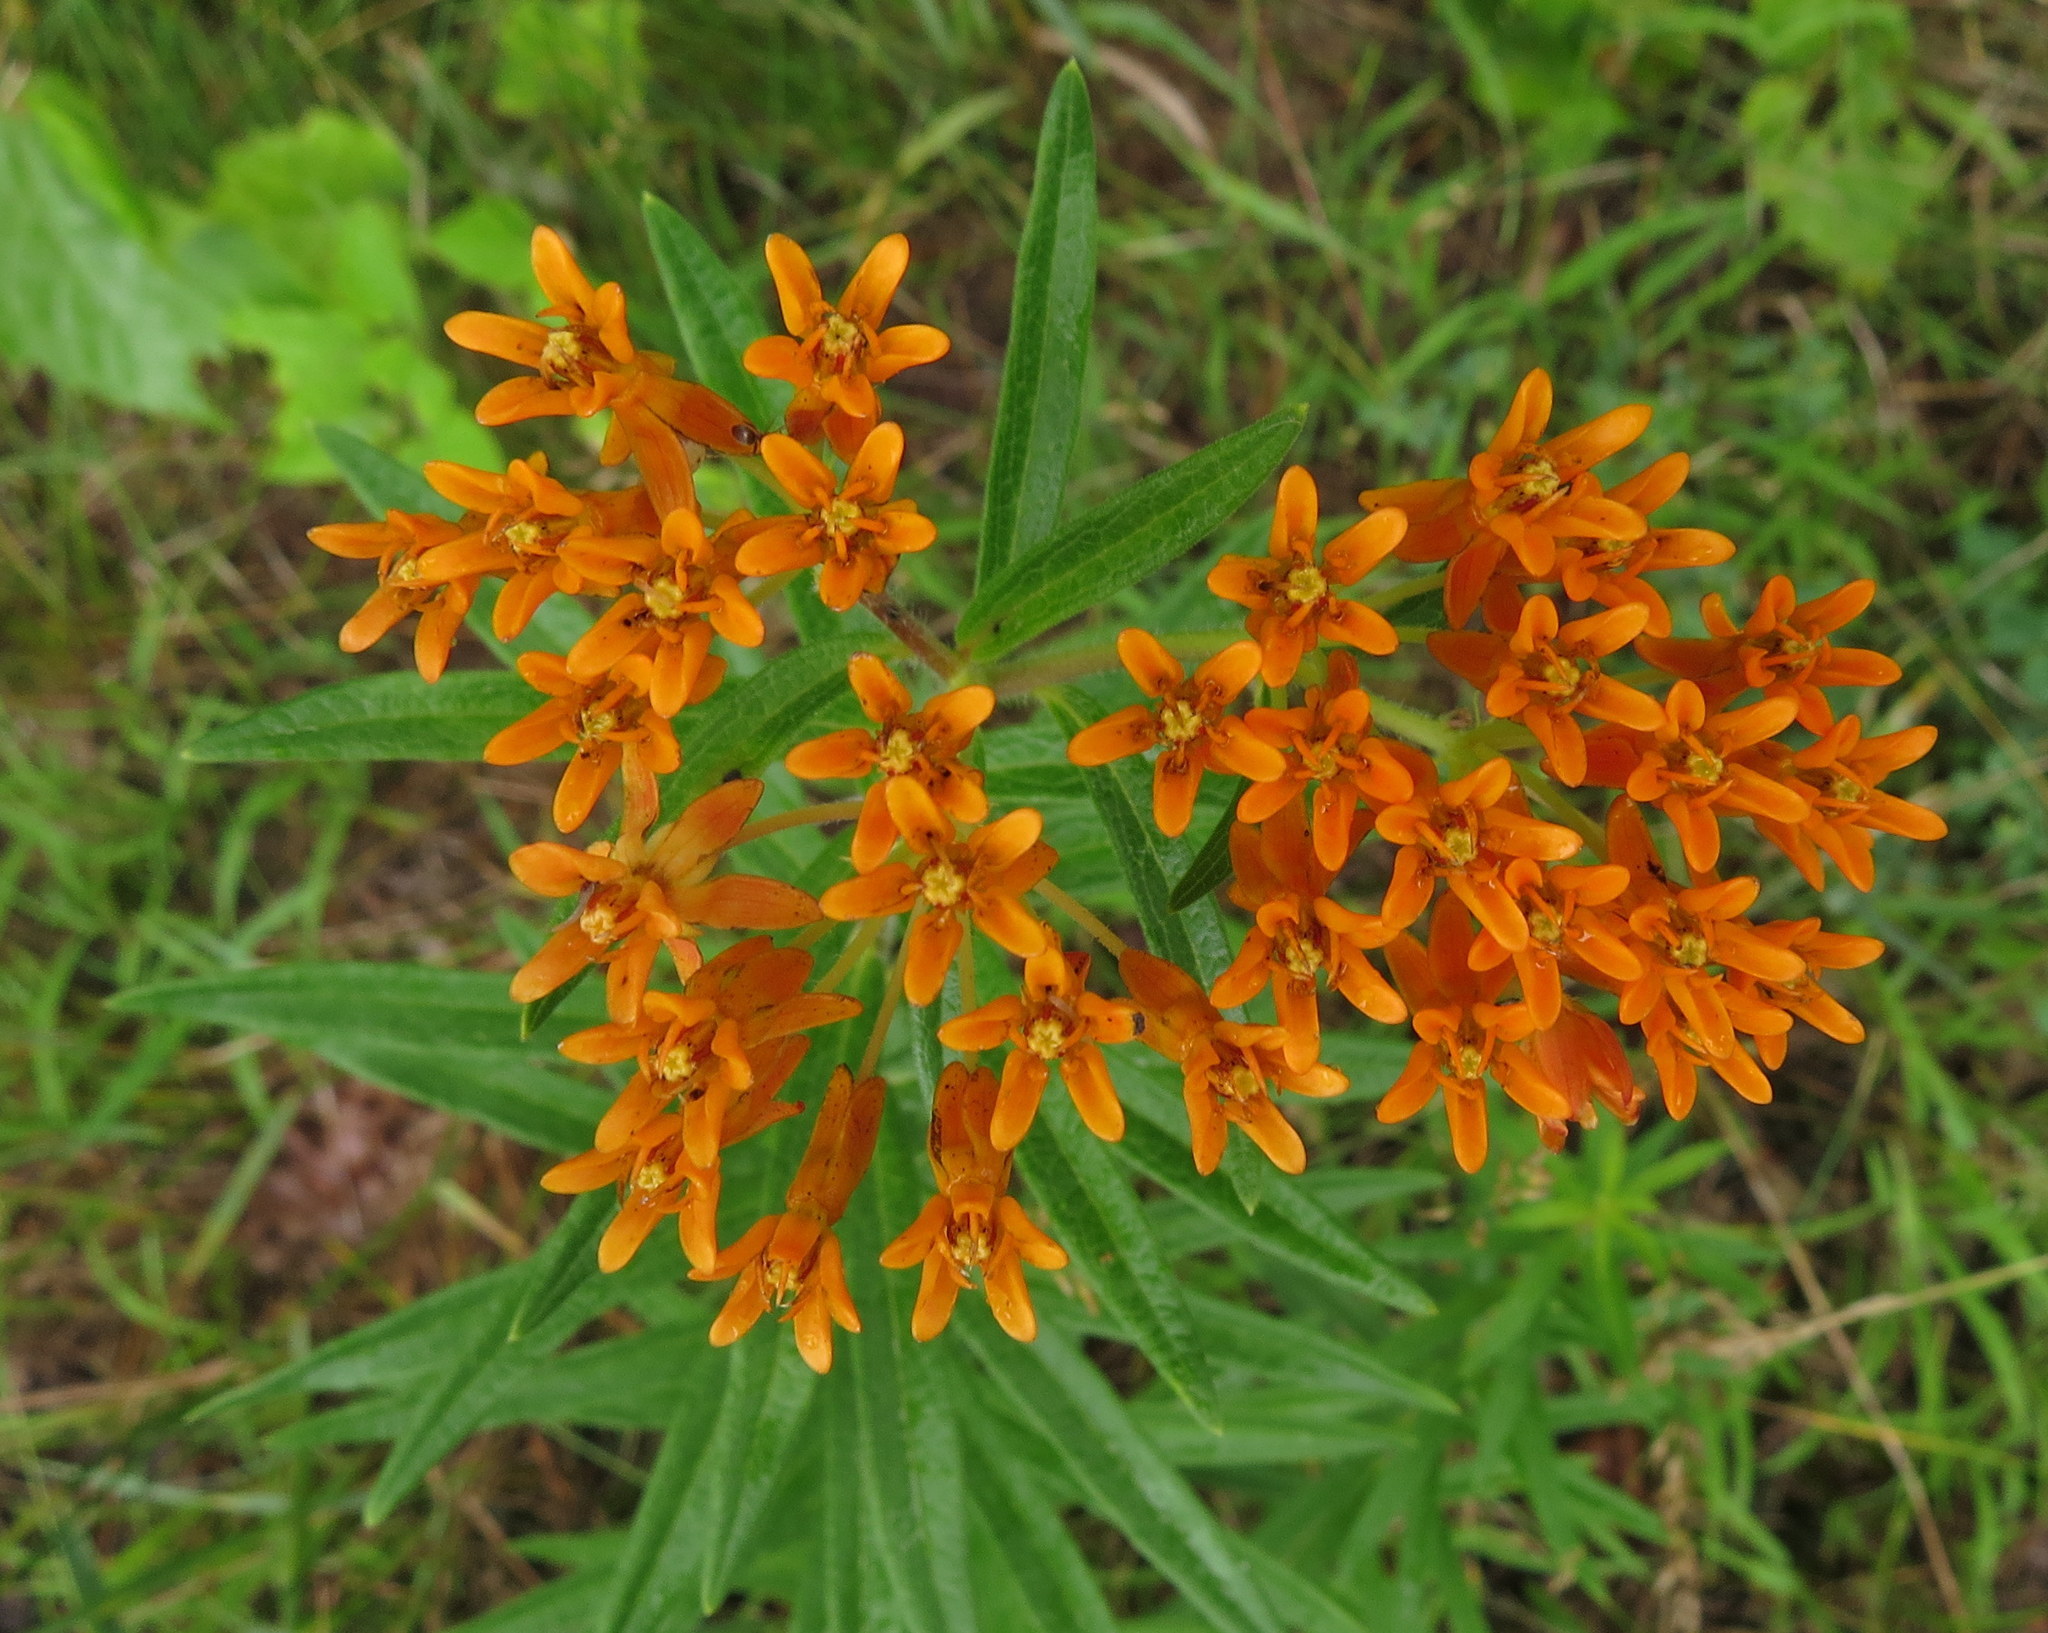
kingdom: Plantae
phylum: Tracheophyta
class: Magnoliopsida
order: Gentianales
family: Apocynaceae
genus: Asclepias
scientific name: Asclepias tuberosa
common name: Butterfly milkweed
